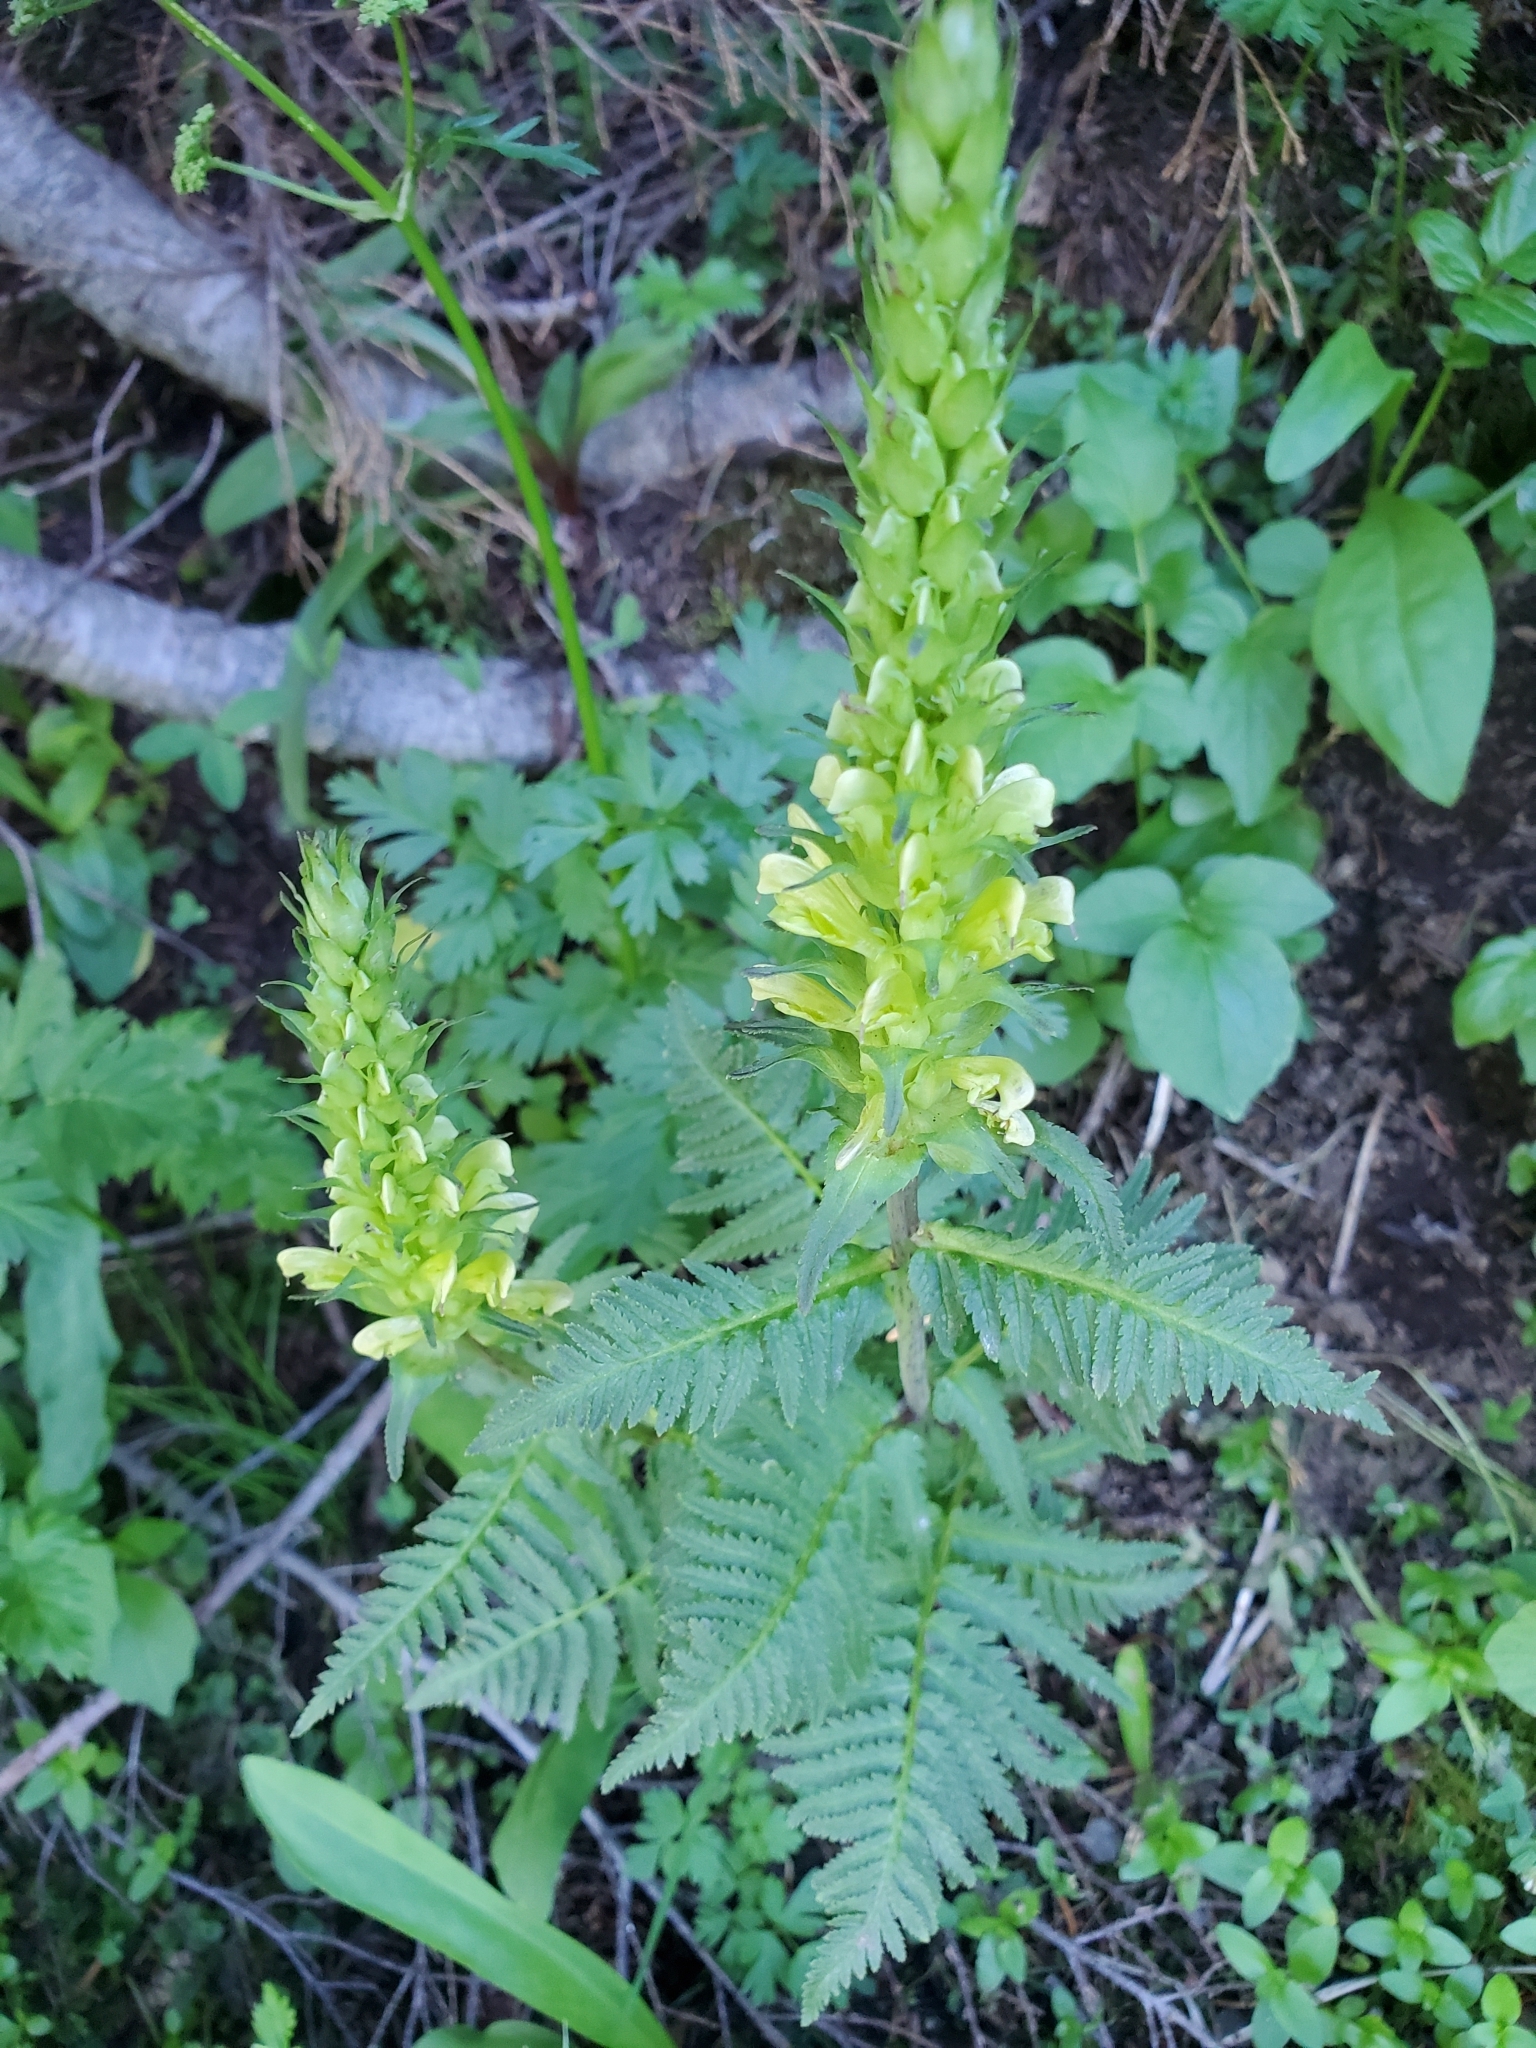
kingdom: Plantae
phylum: Tracheophyta
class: Magnoliopsida
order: Lamiales
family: Orobanchaceae
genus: Pedicularis
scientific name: Pedicularis bracteosa
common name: Bracted lousewort
